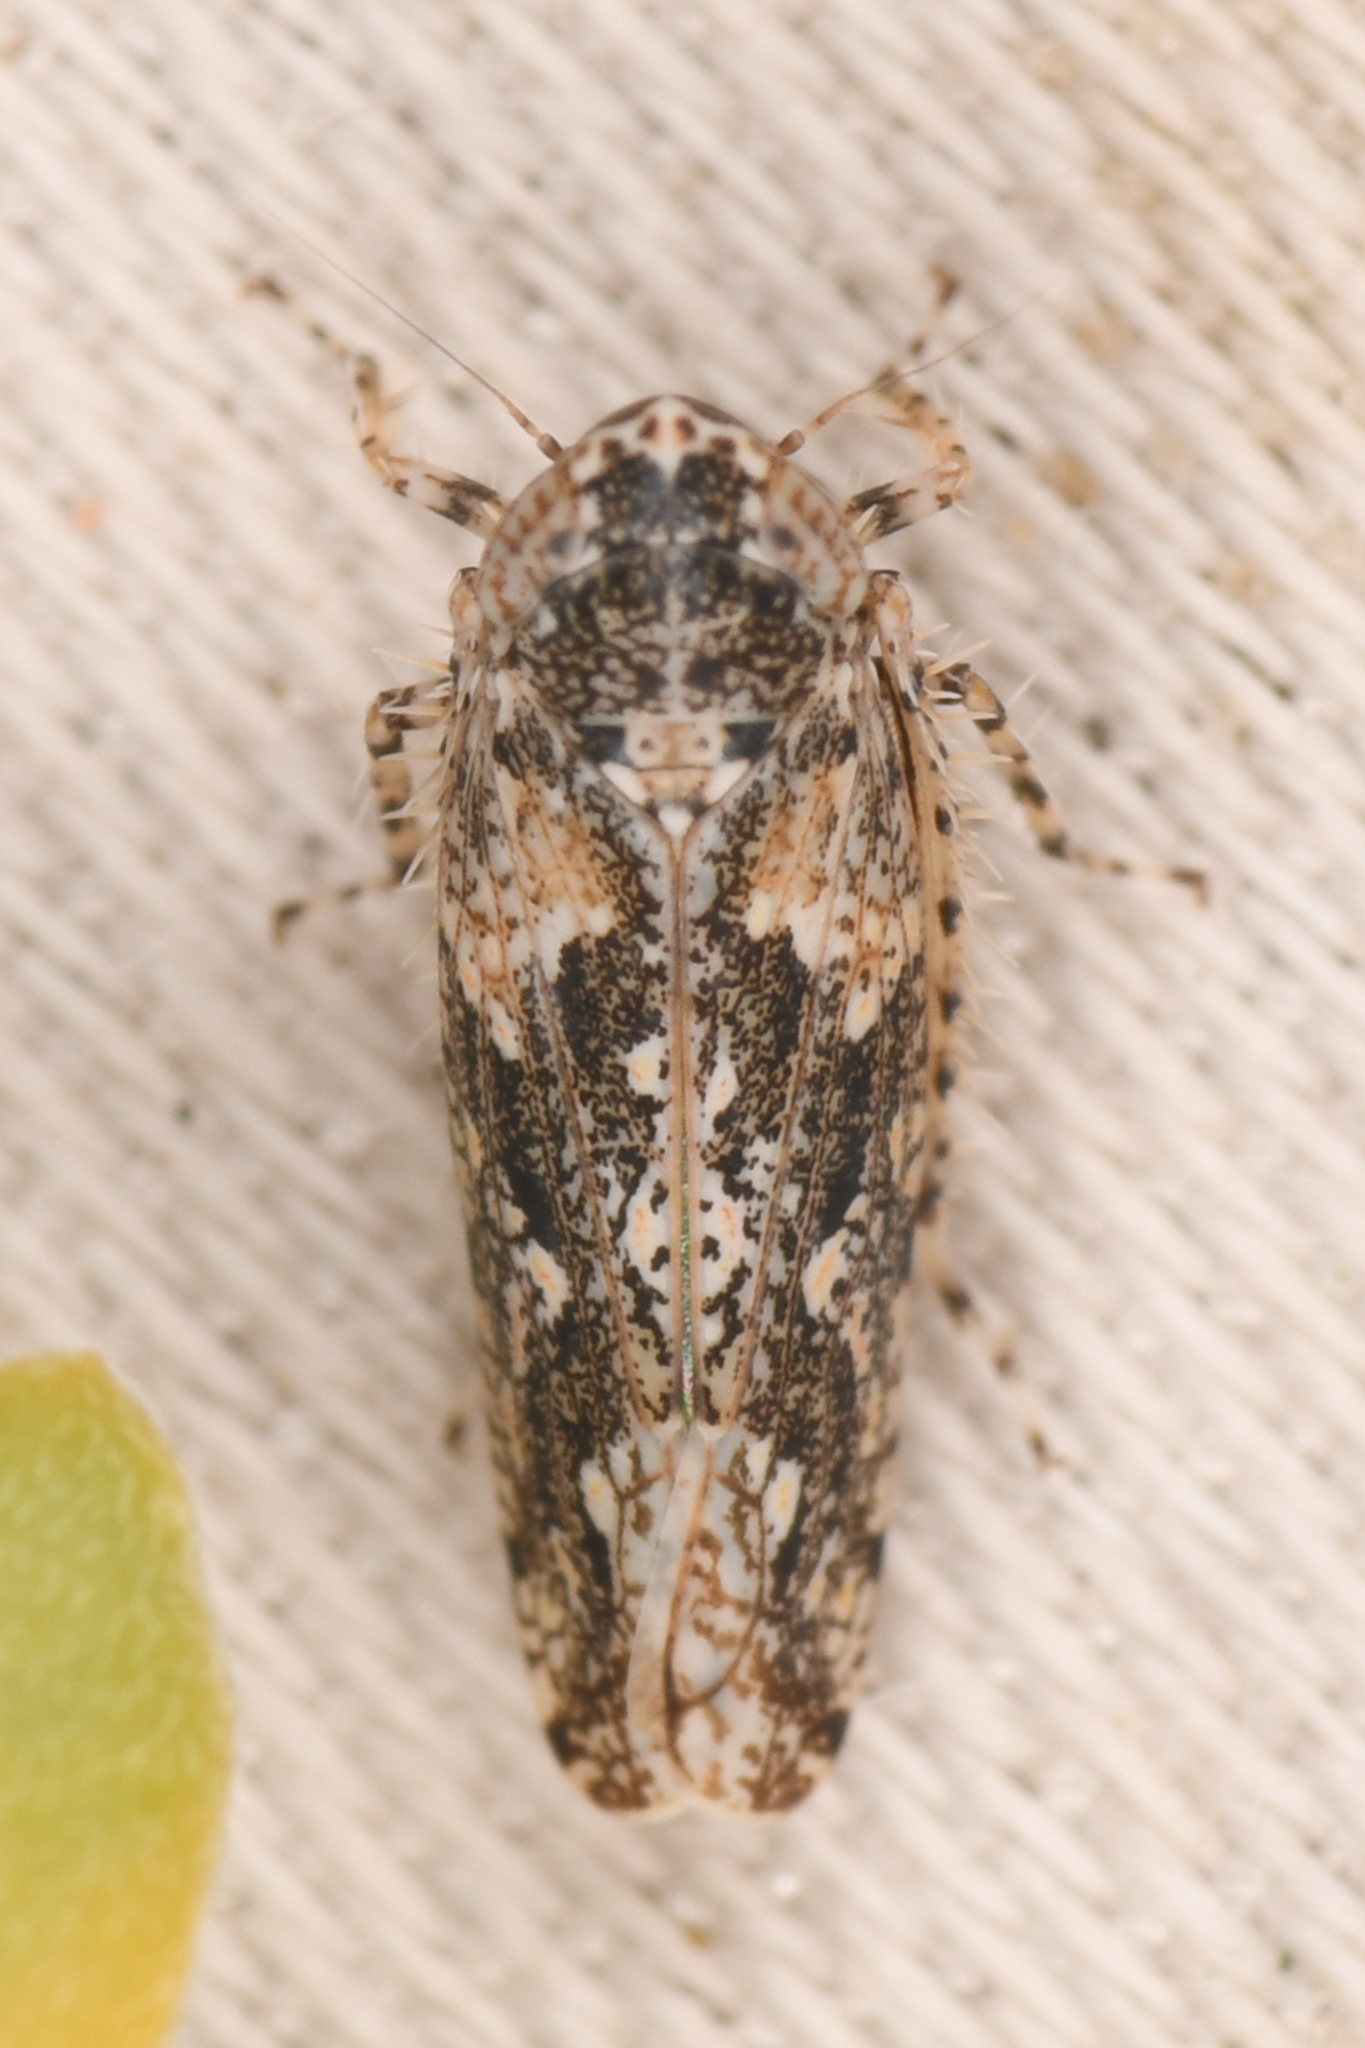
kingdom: Animalia
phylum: Arthropoda
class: Insecta
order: Hemiptera
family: Cicadellidae
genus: Dixianus
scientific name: Dixianus utahnus
